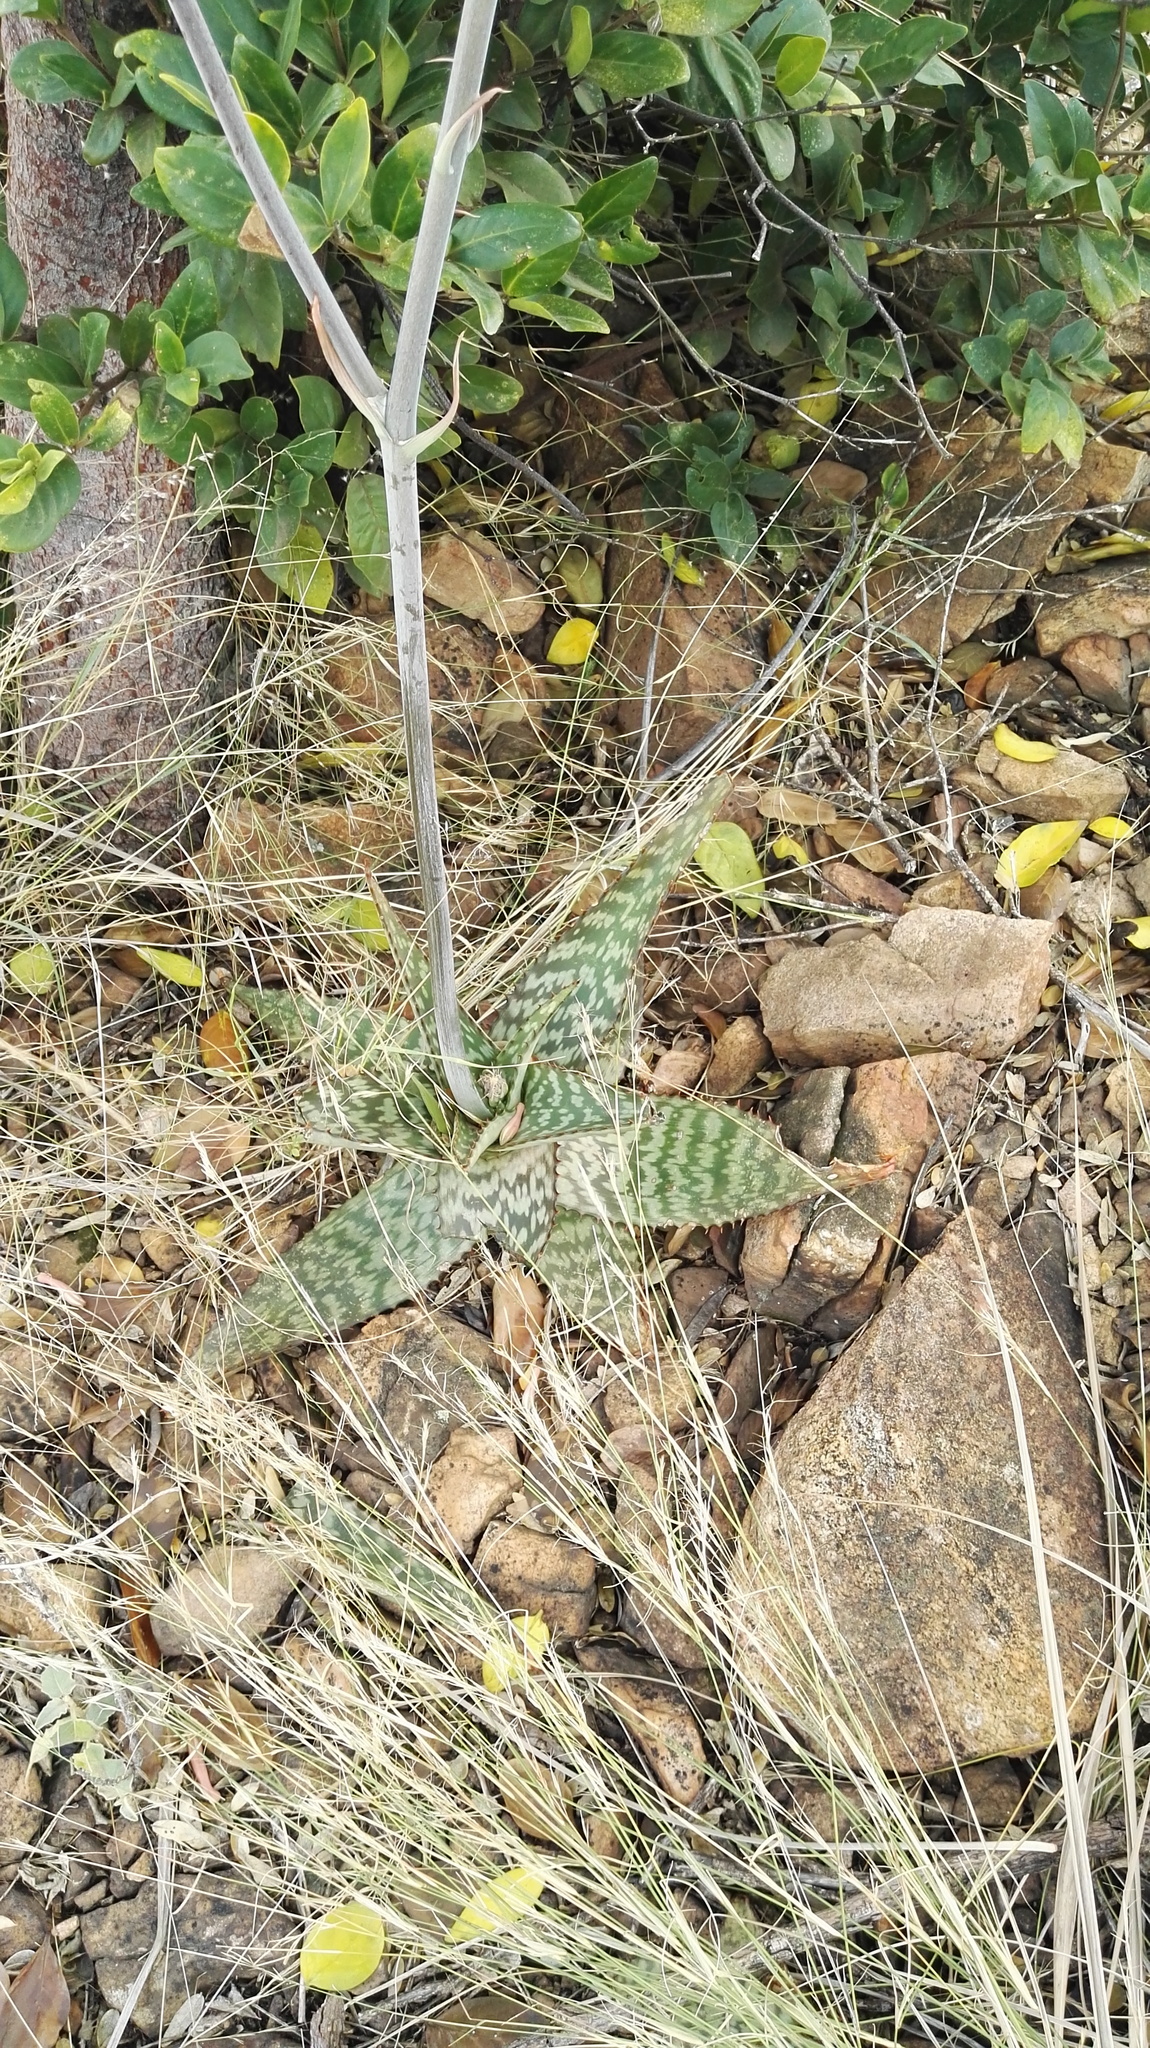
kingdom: Plantae
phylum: Tracheophyta
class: Liliopsida
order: Asparagales
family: Asphodelaceae
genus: Aloe
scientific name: Aloe davyana
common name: Spotted aloe
